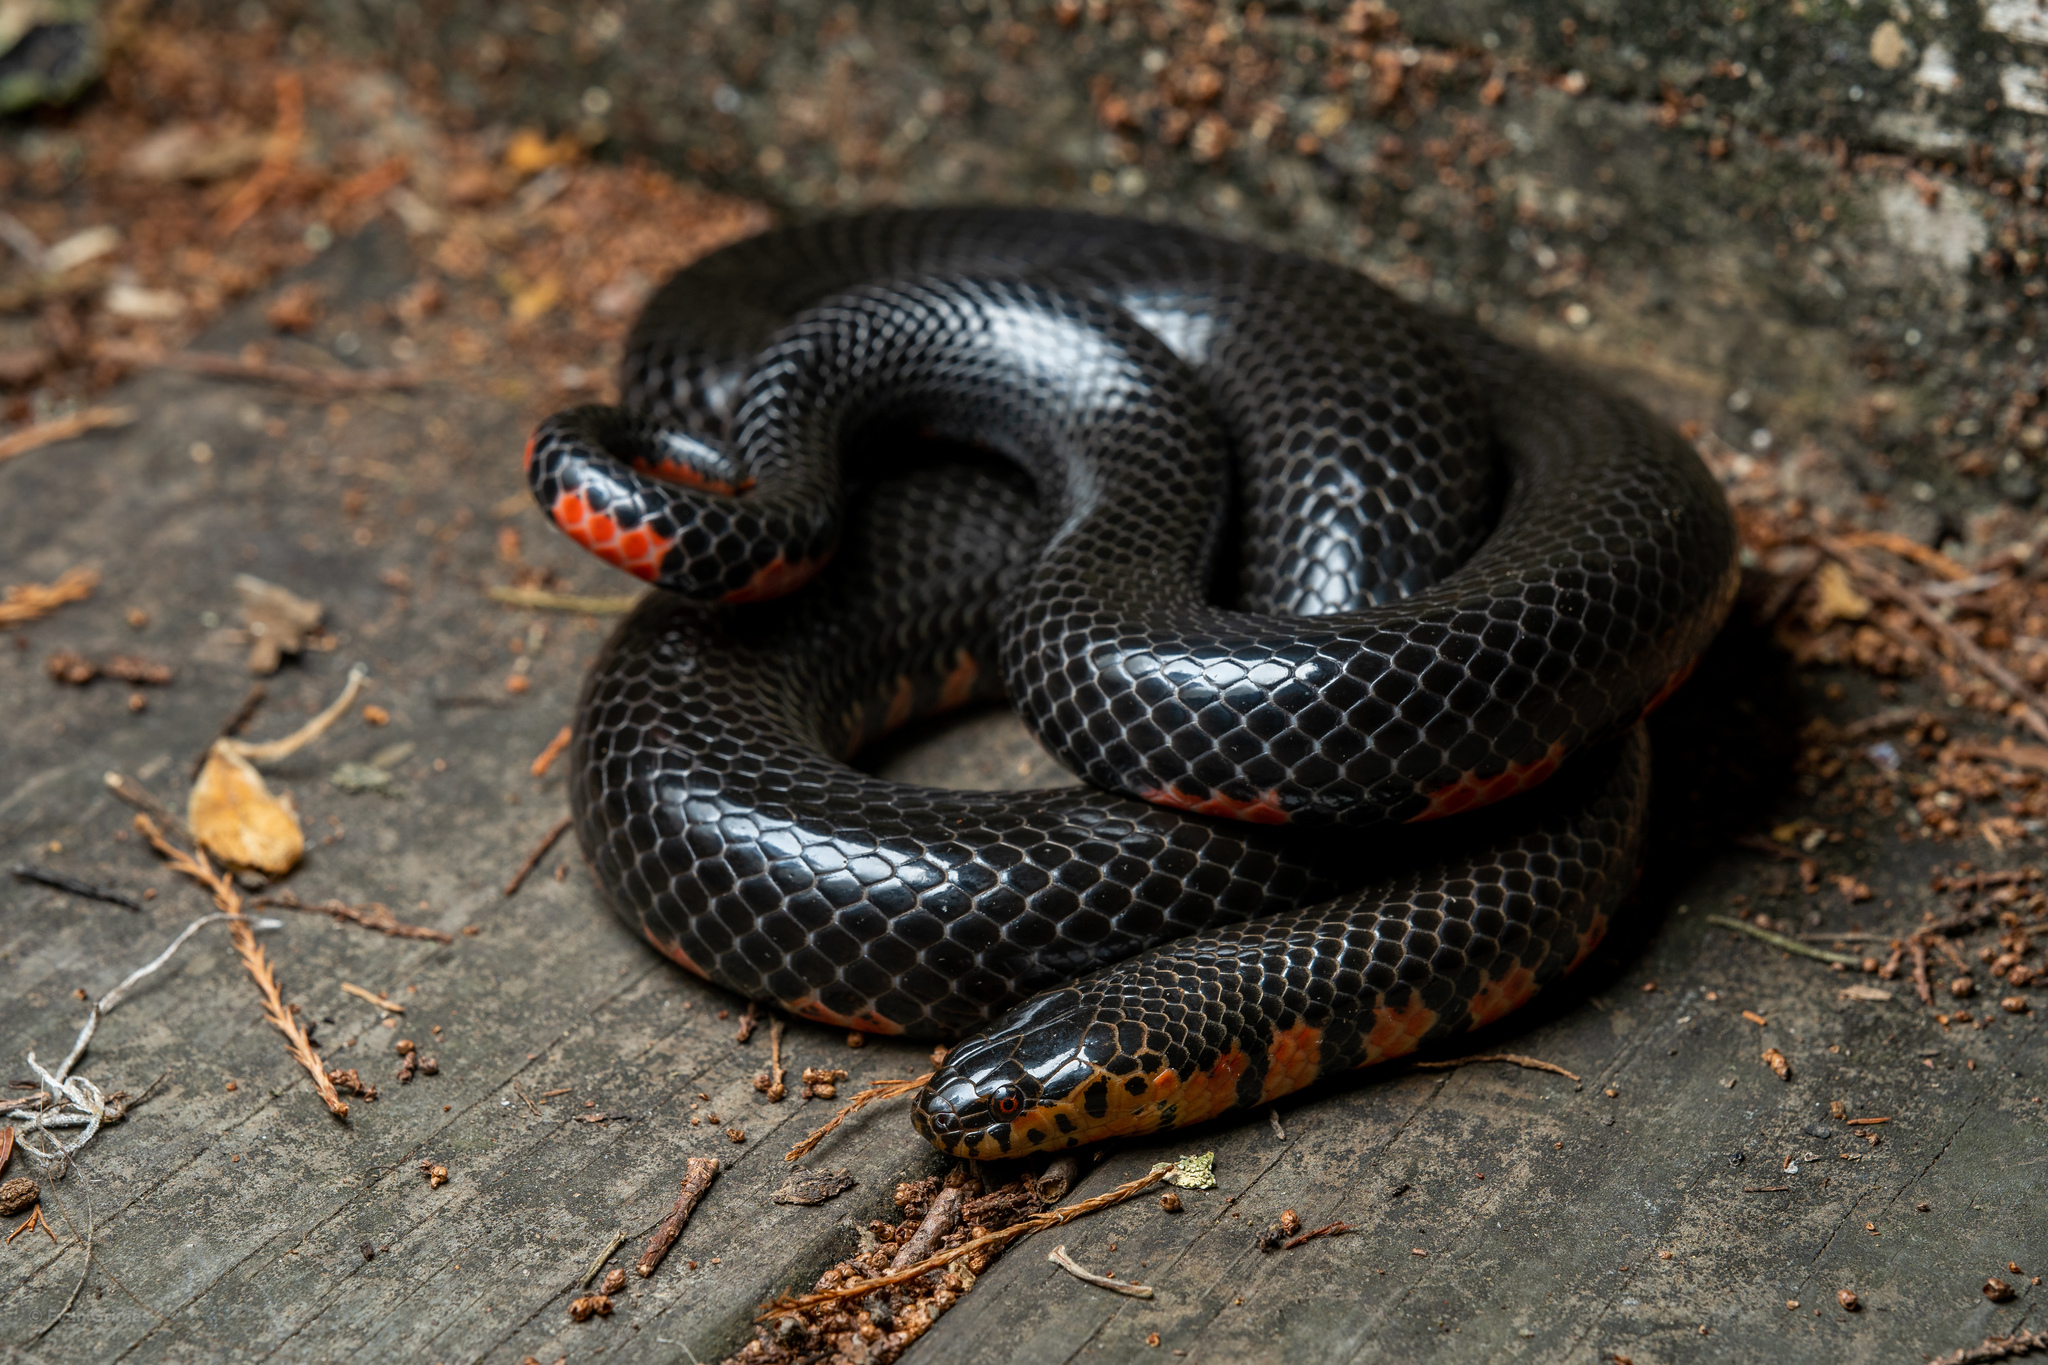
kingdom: Animalia
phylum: Chordata
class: Squamata
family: Colubridae
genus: Farancia
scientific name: Farancia abacura
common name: Mud snake
